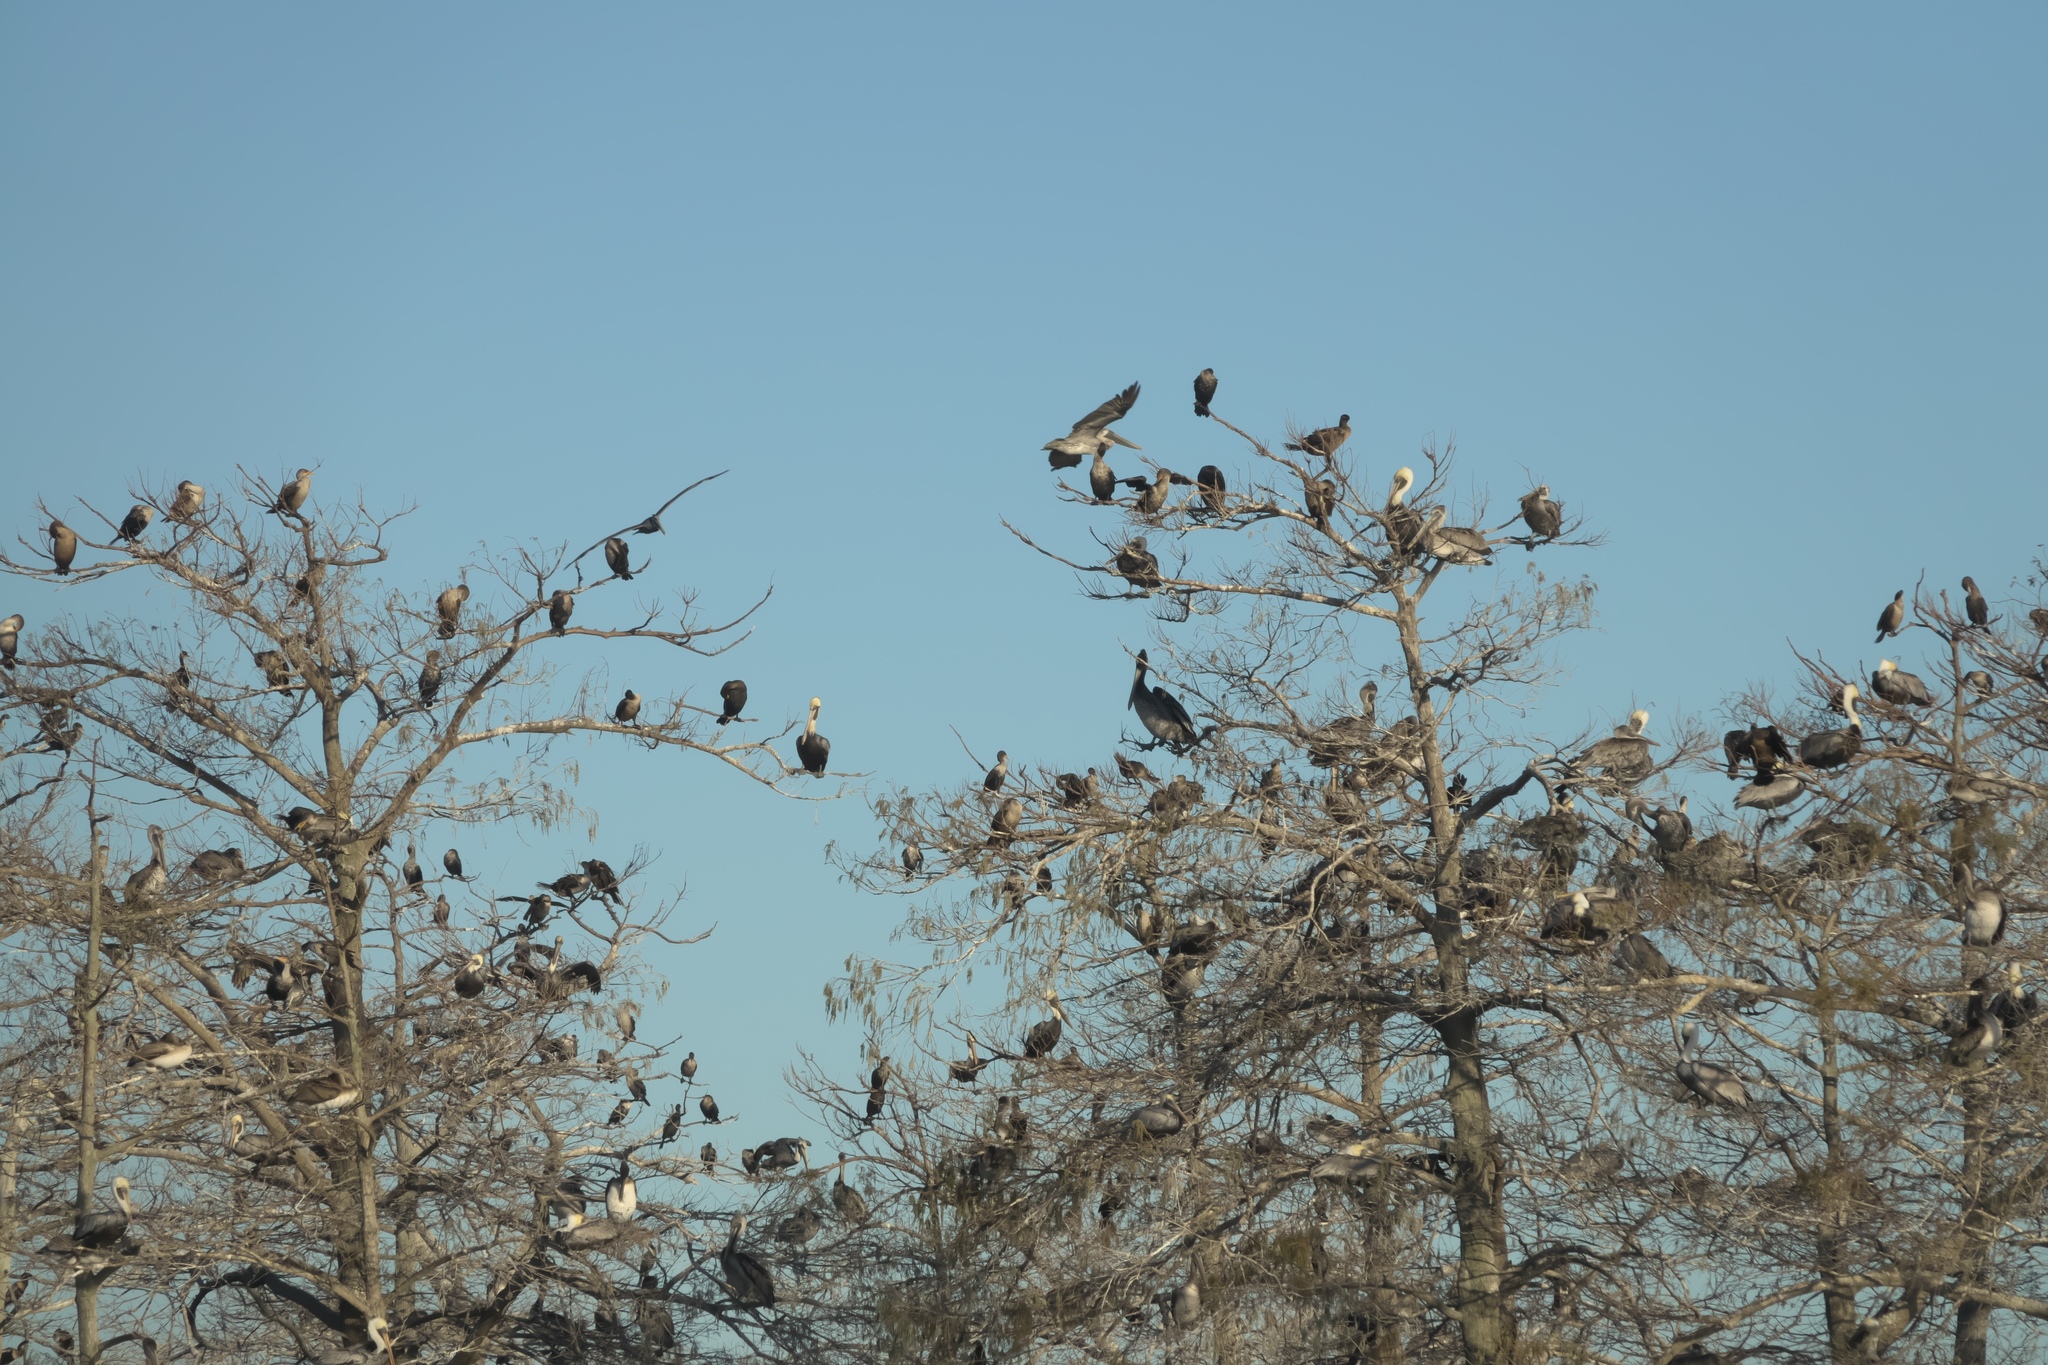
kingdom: Animalia
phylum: Chordata
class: Aves
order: Suliformes
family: Phalacrocoracidae
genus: Phalacrocorax
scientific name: Phalacrocorax auritus
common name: Double-crested cormorant
